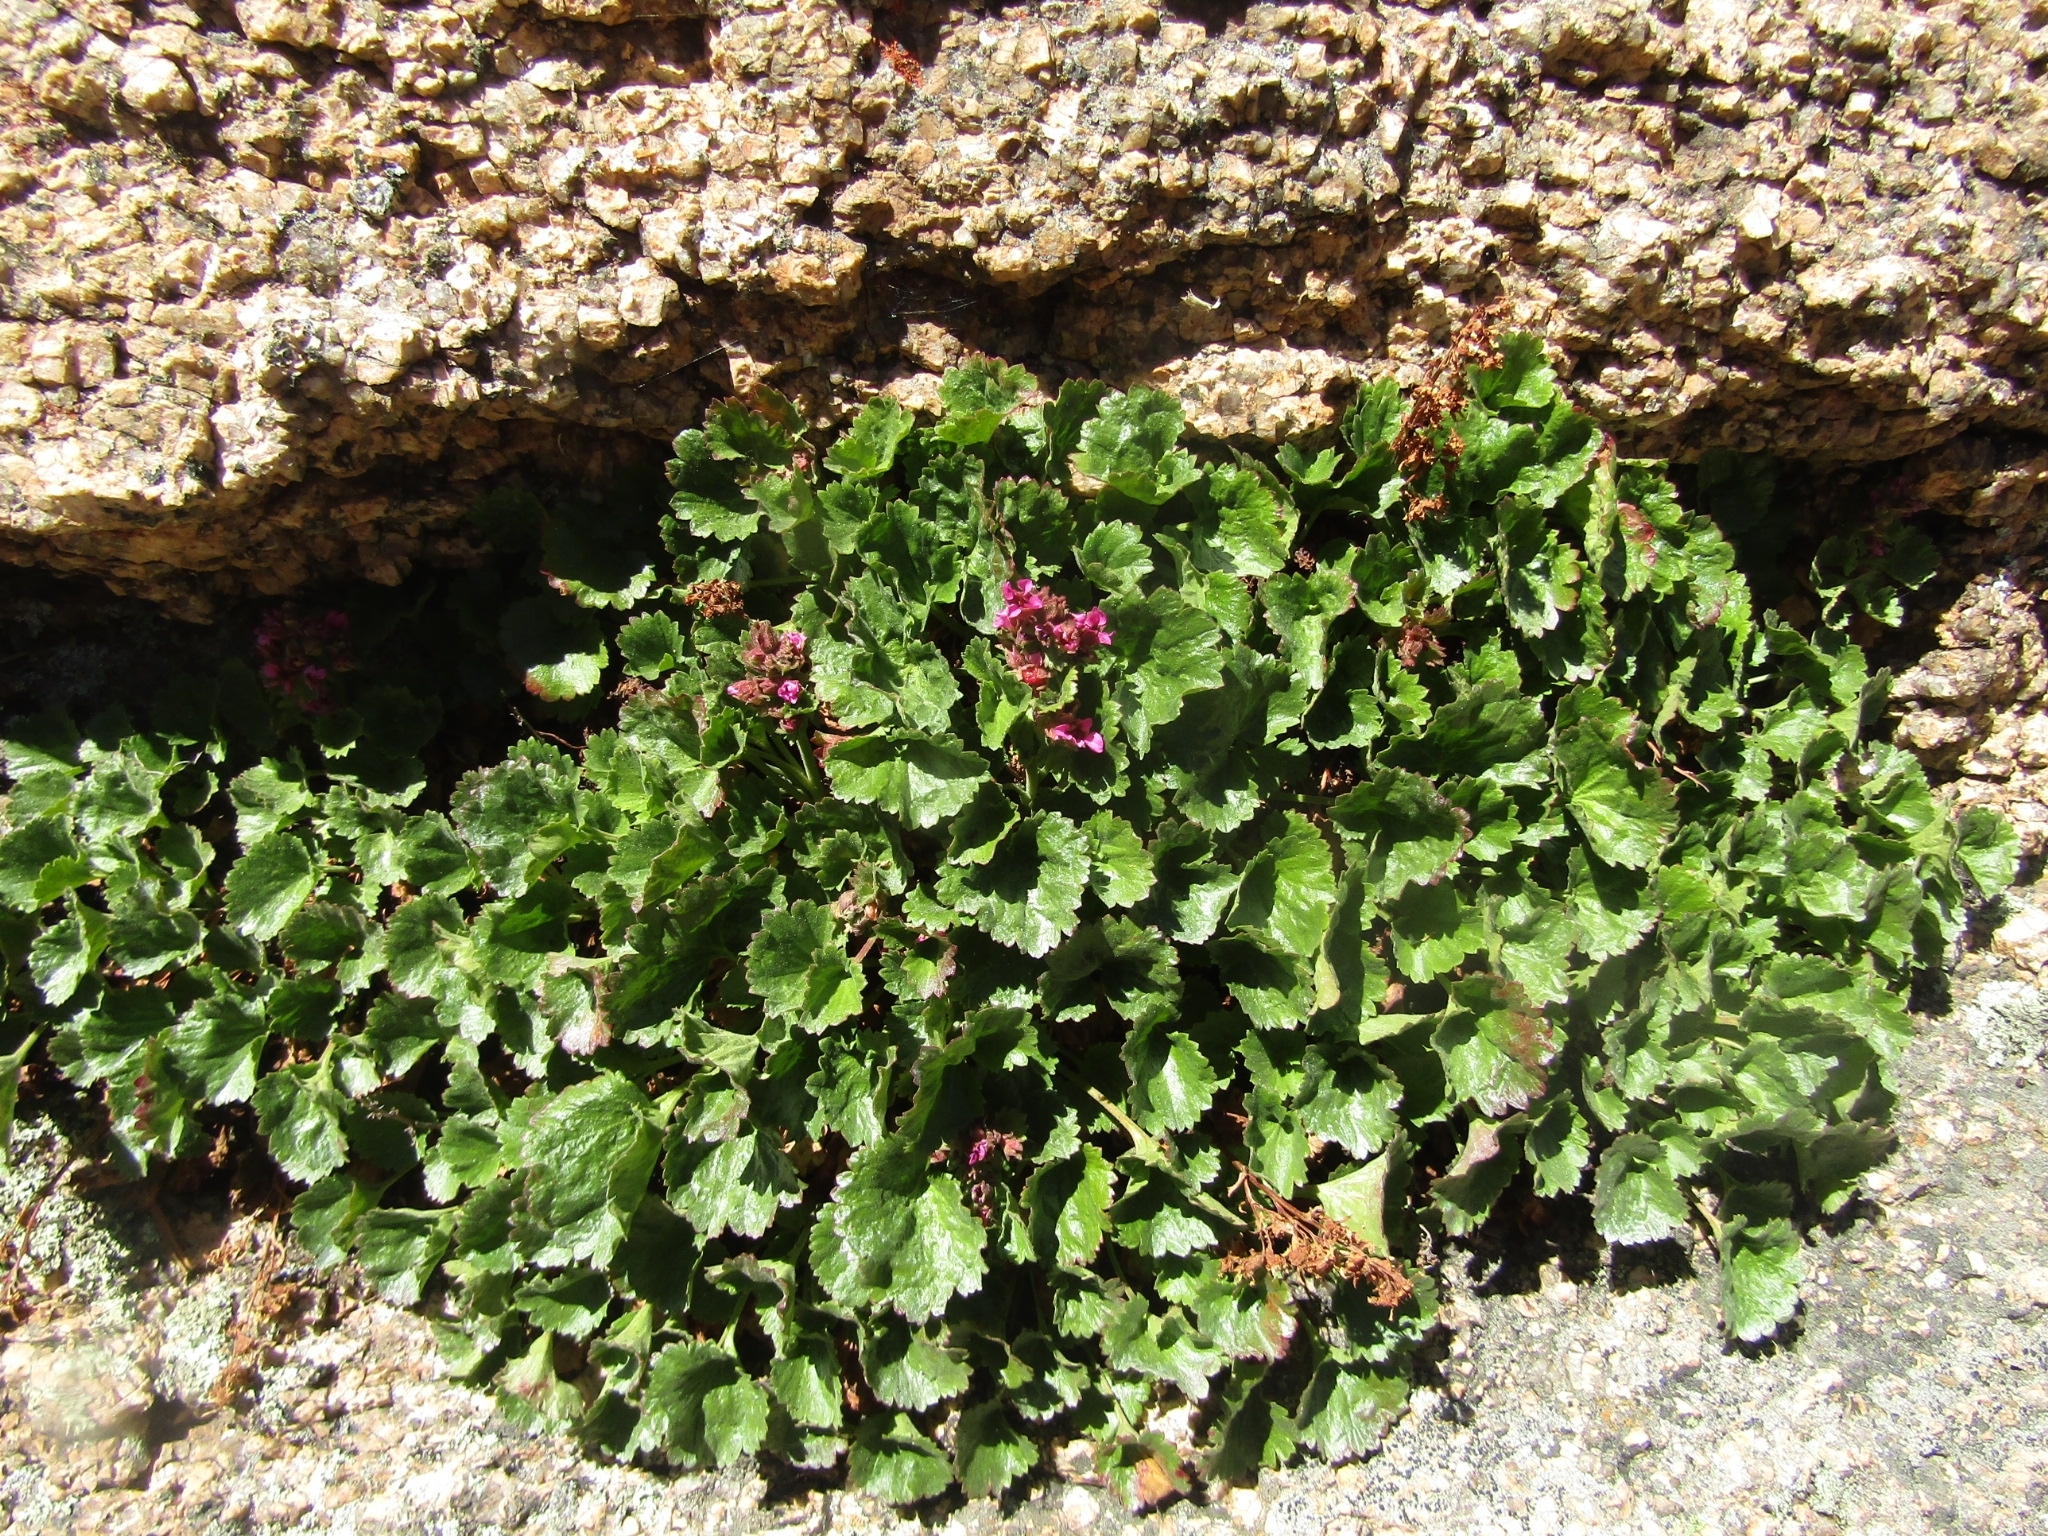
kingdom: Plantae
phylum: Tracheophyta
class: Magnoliopsida
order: Saxifragales
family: Saxifragaceae
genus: Telesonix
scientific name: Telesonix jamesii
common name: James's-saxifrage
